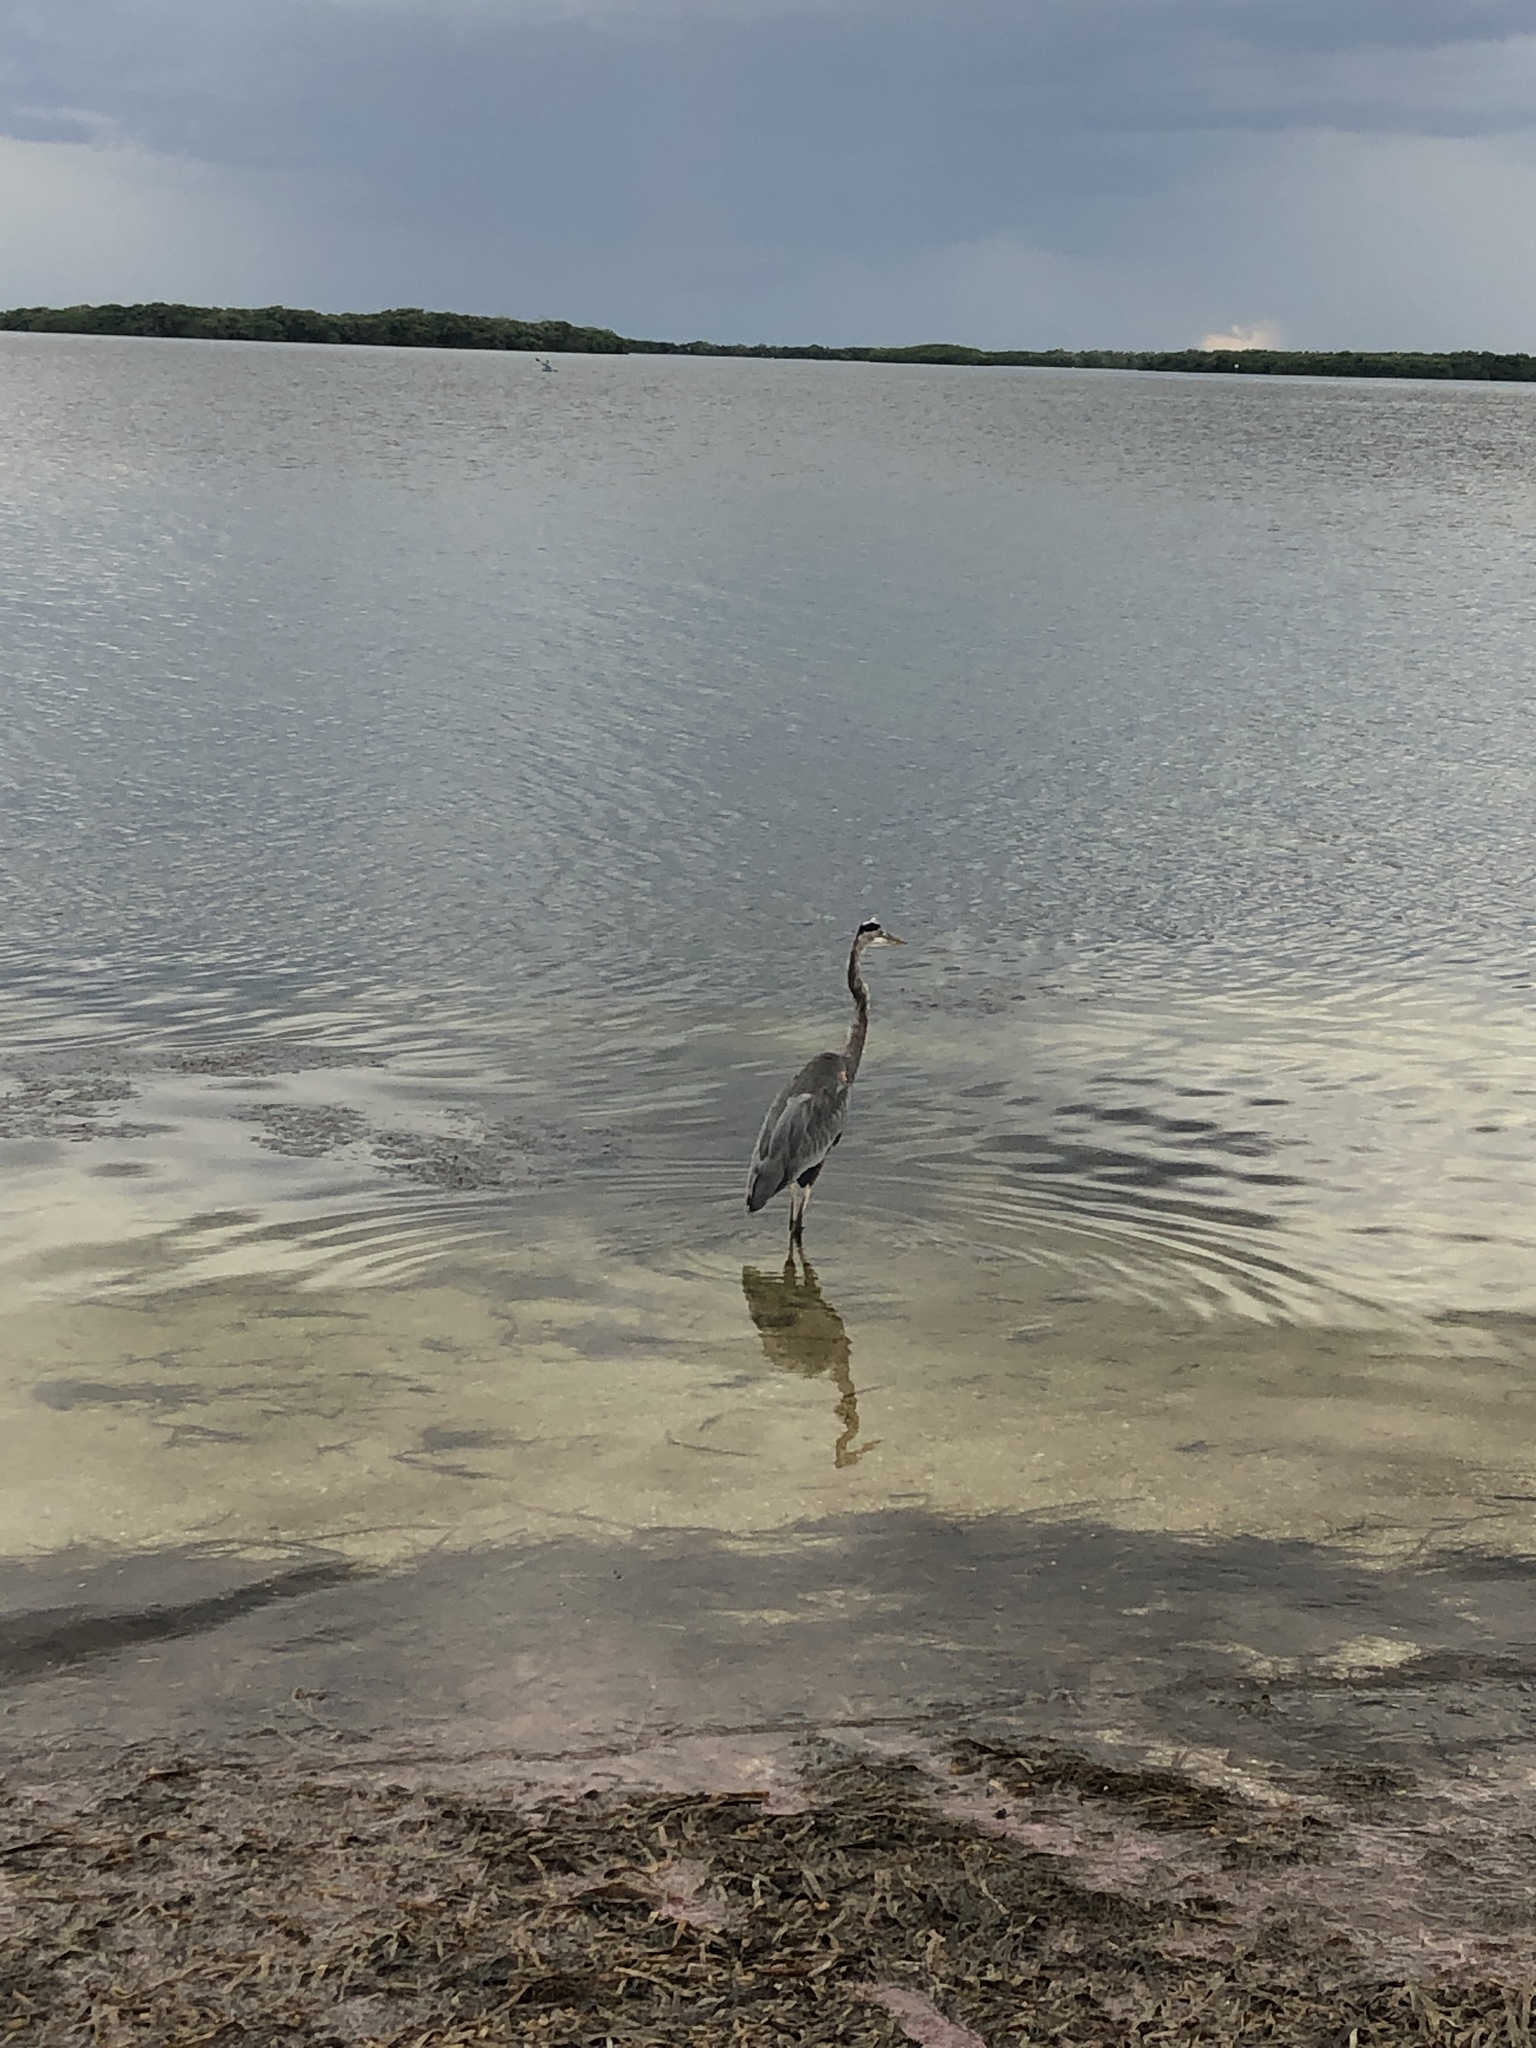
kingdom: Animalia
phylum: Chordata
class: Aves
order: Pelecaniformes
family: Ardeidae
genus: Ardea
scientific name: Ardea herodias
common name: Great blue heron
